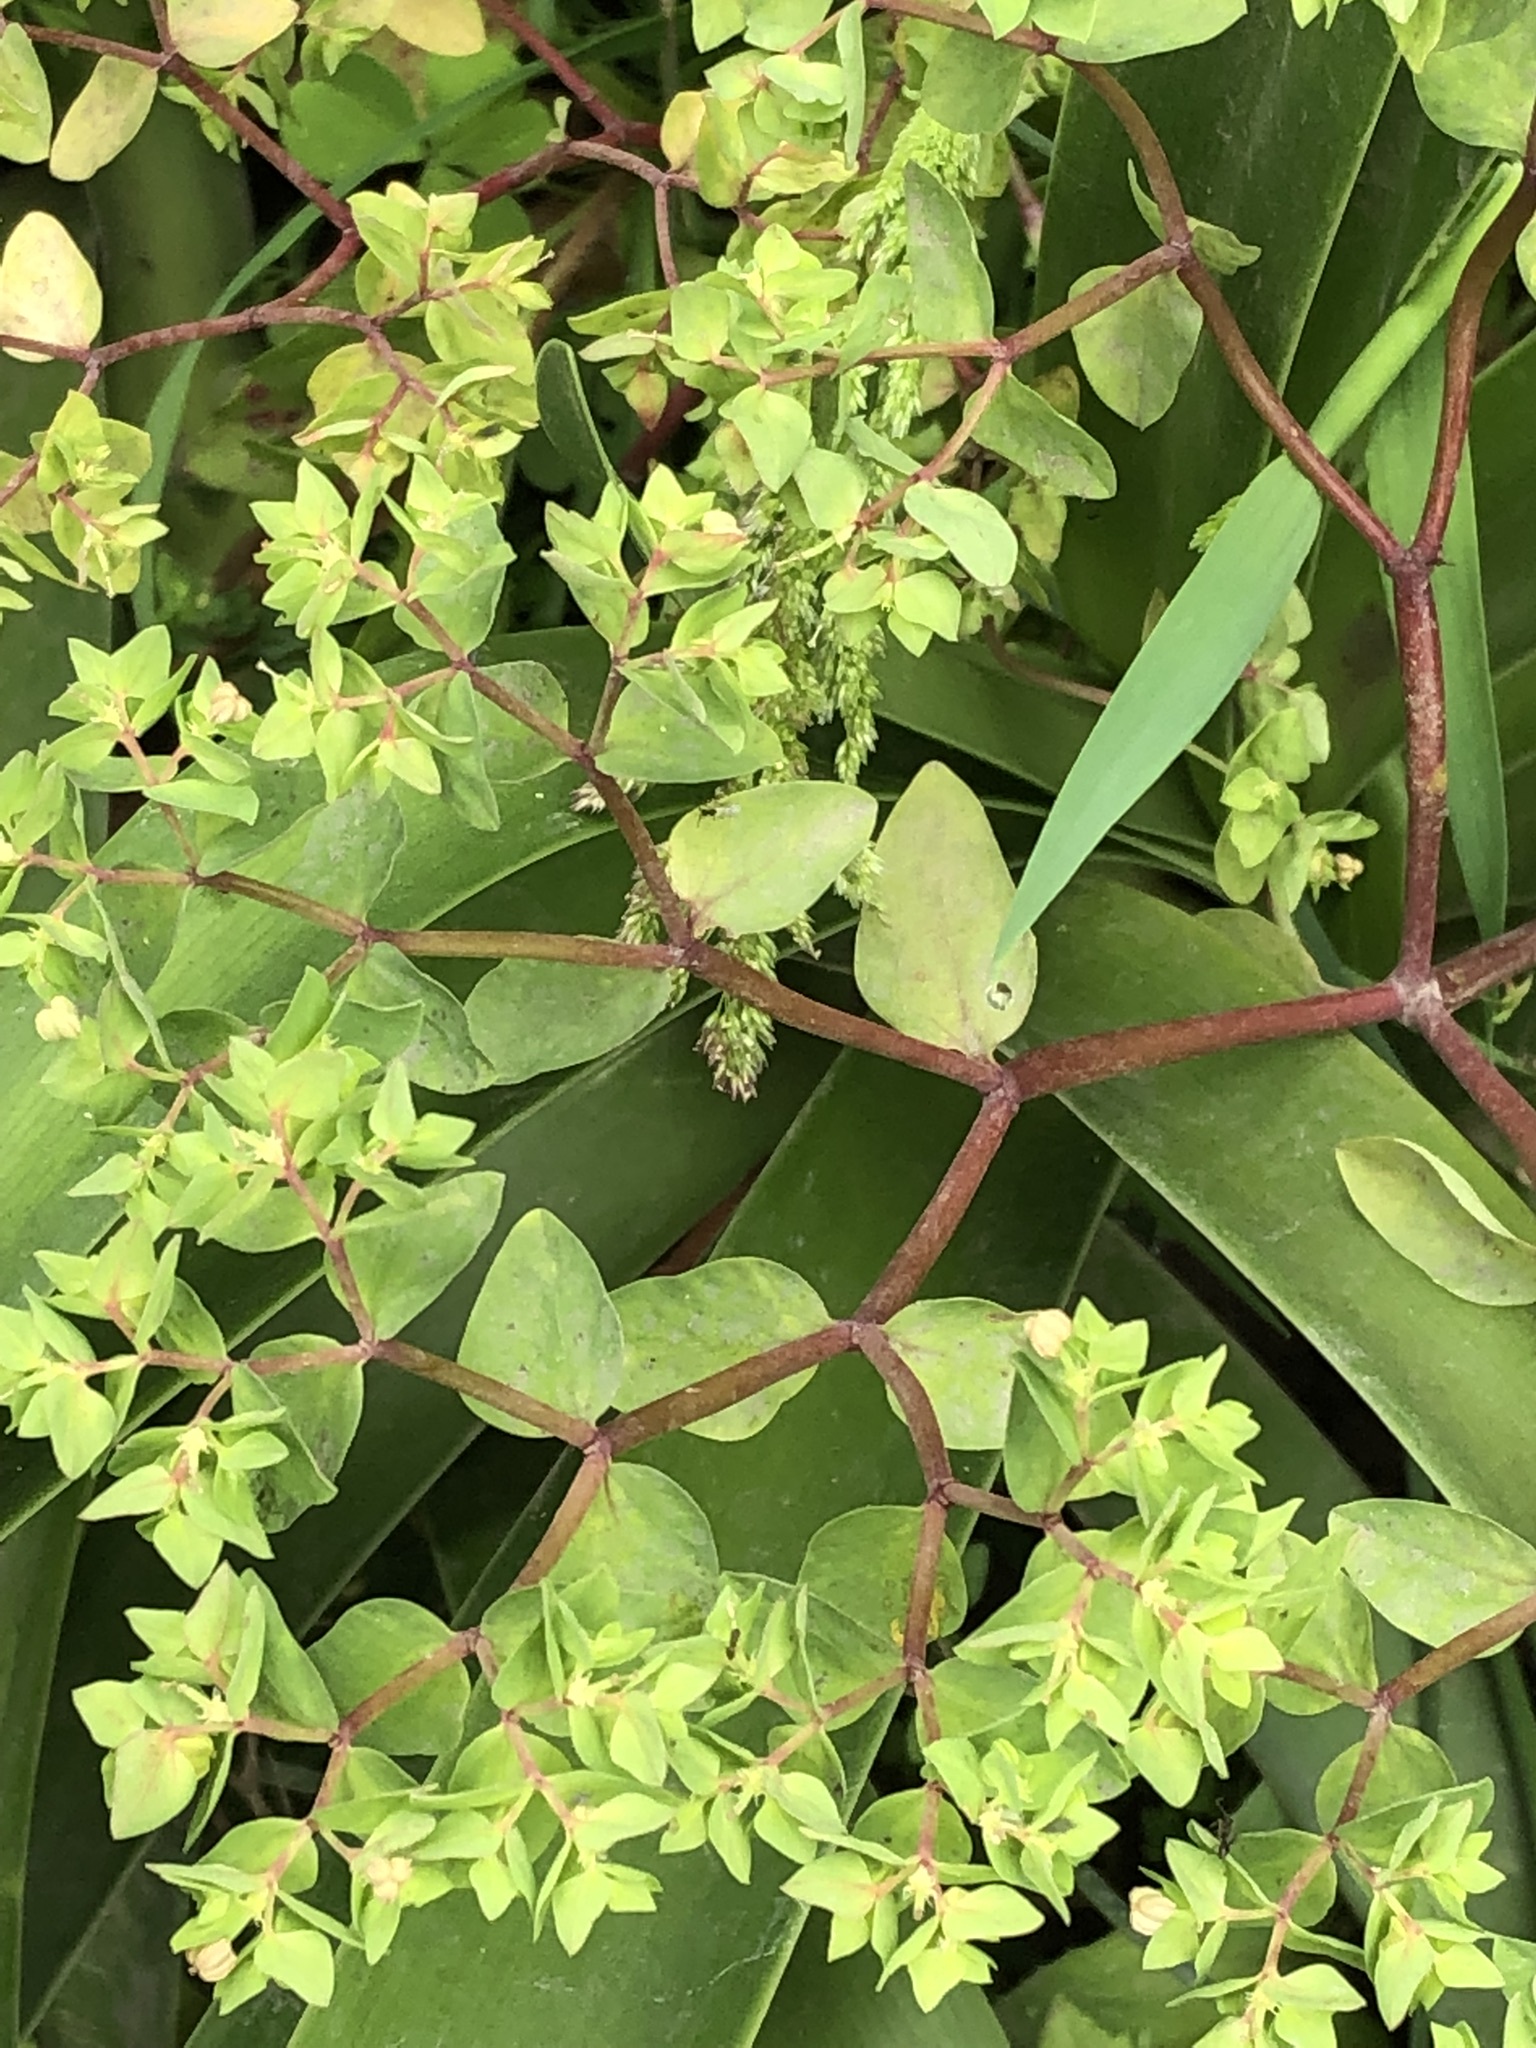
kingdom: Plantae
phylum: Tracheophyta
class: Magnoliopsida
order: Malpighiales
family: Euphorbiaceae
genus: Euphorbia
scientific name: Euphorbia peplus
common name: Petty spurge
